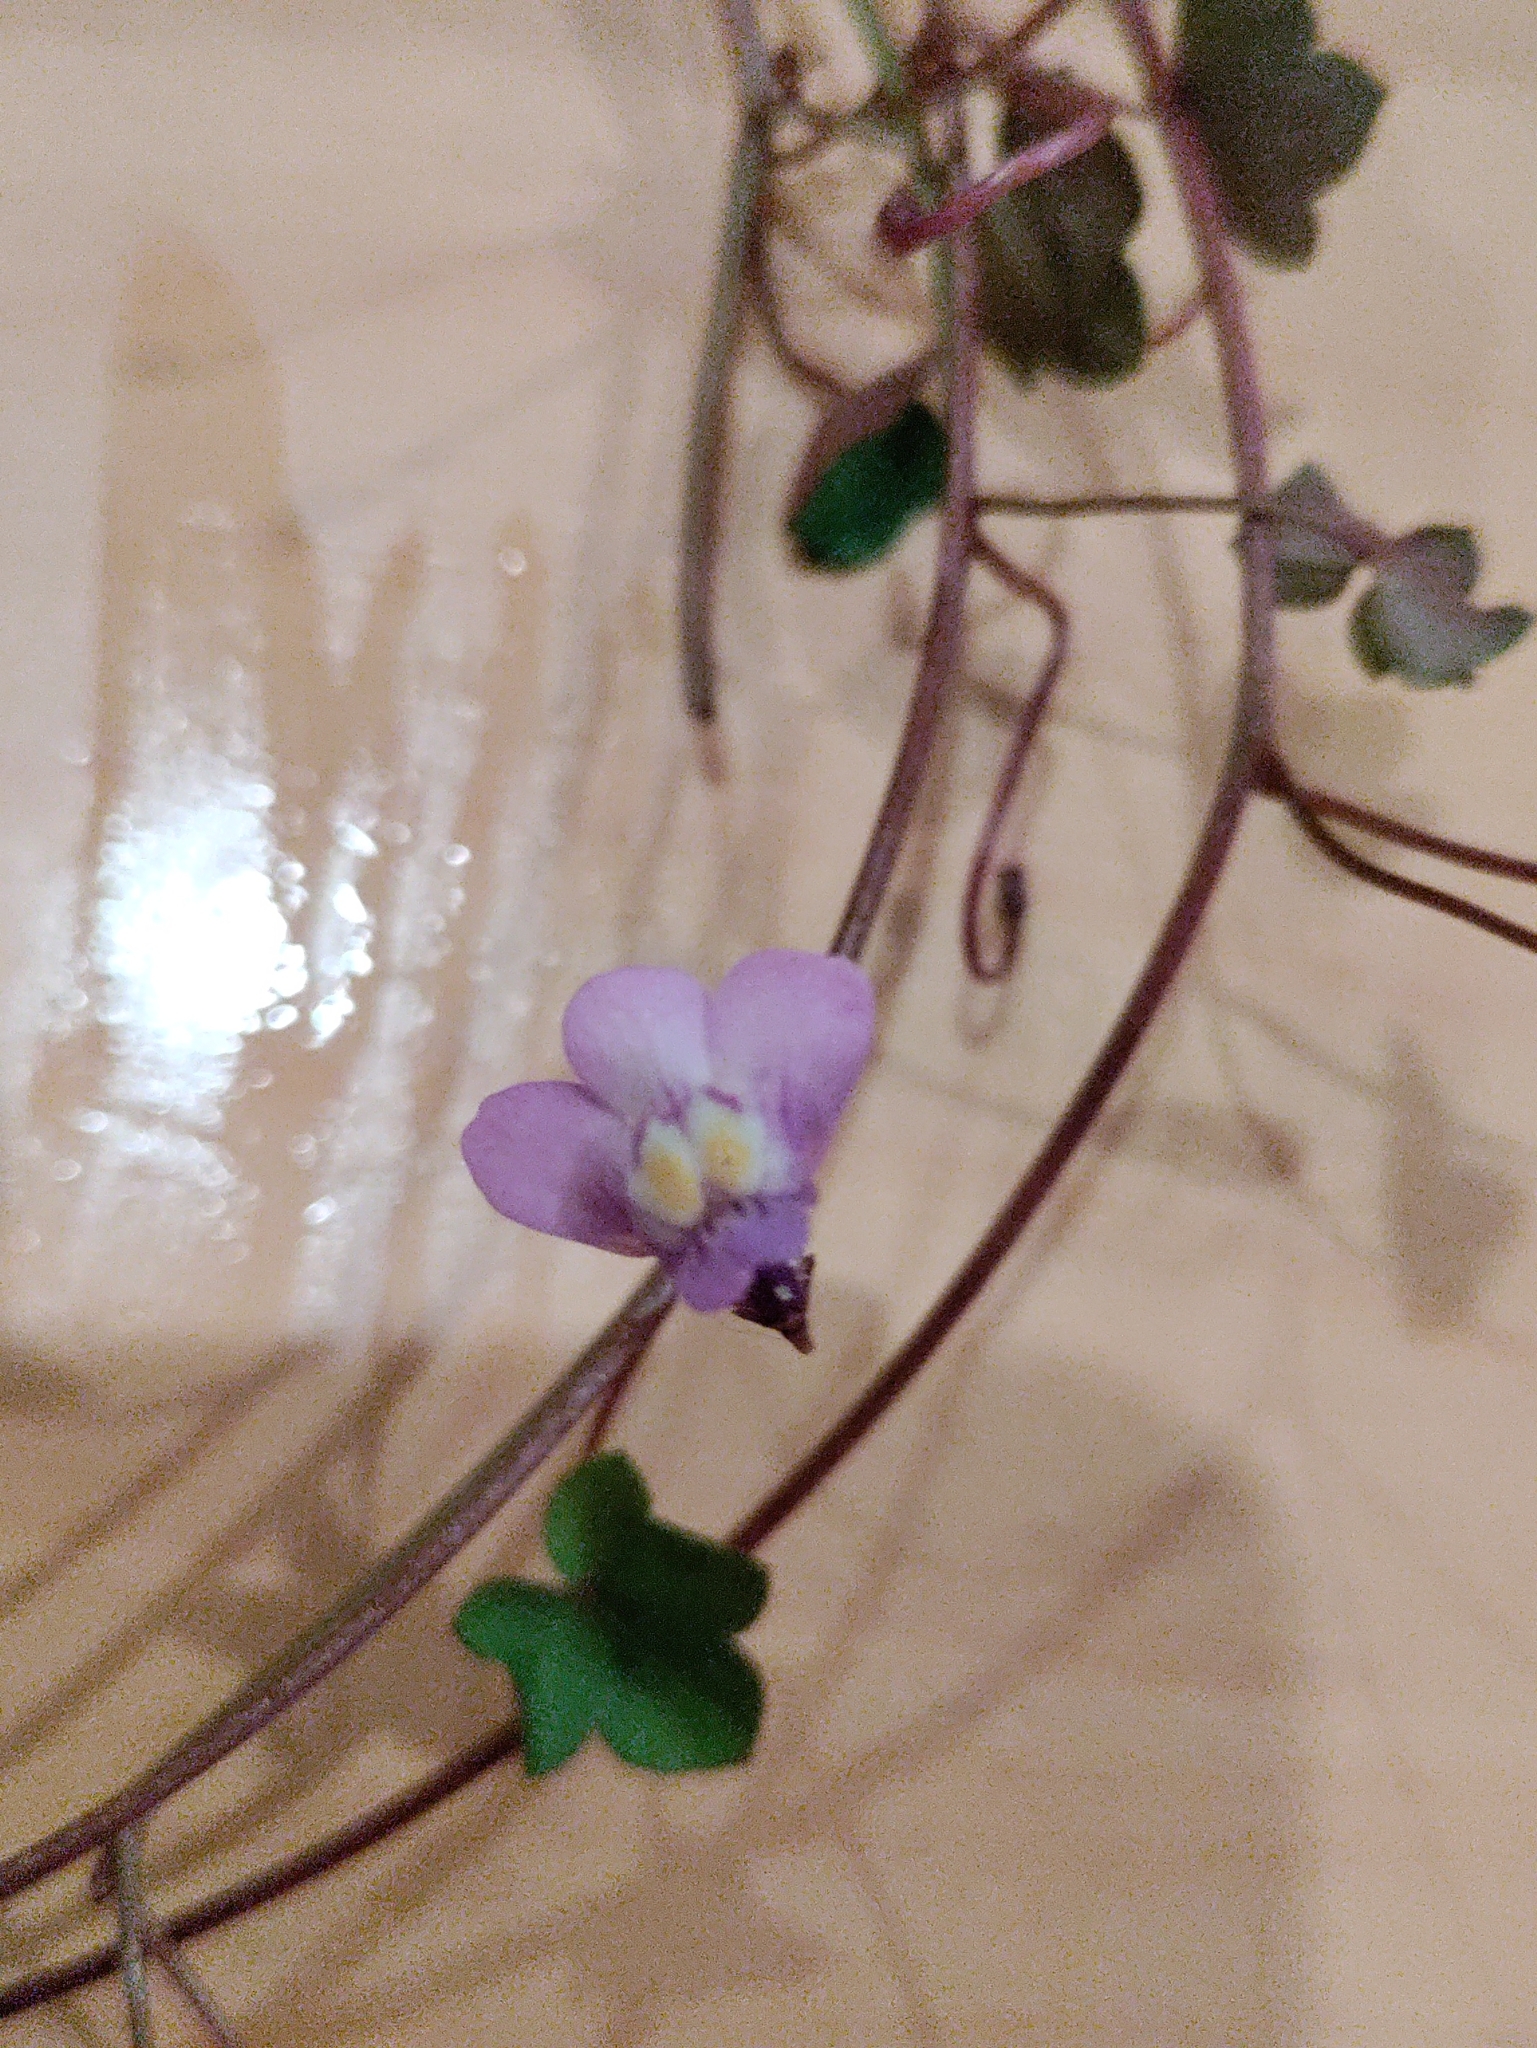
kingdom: Plantae
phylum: Tracheophyta
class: Magnoliopsida
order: Lamiales
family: Plantaginaceae
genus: Cymbalaria
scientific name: Cymbalaria muralis
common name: Ivy-leaved toadflax
